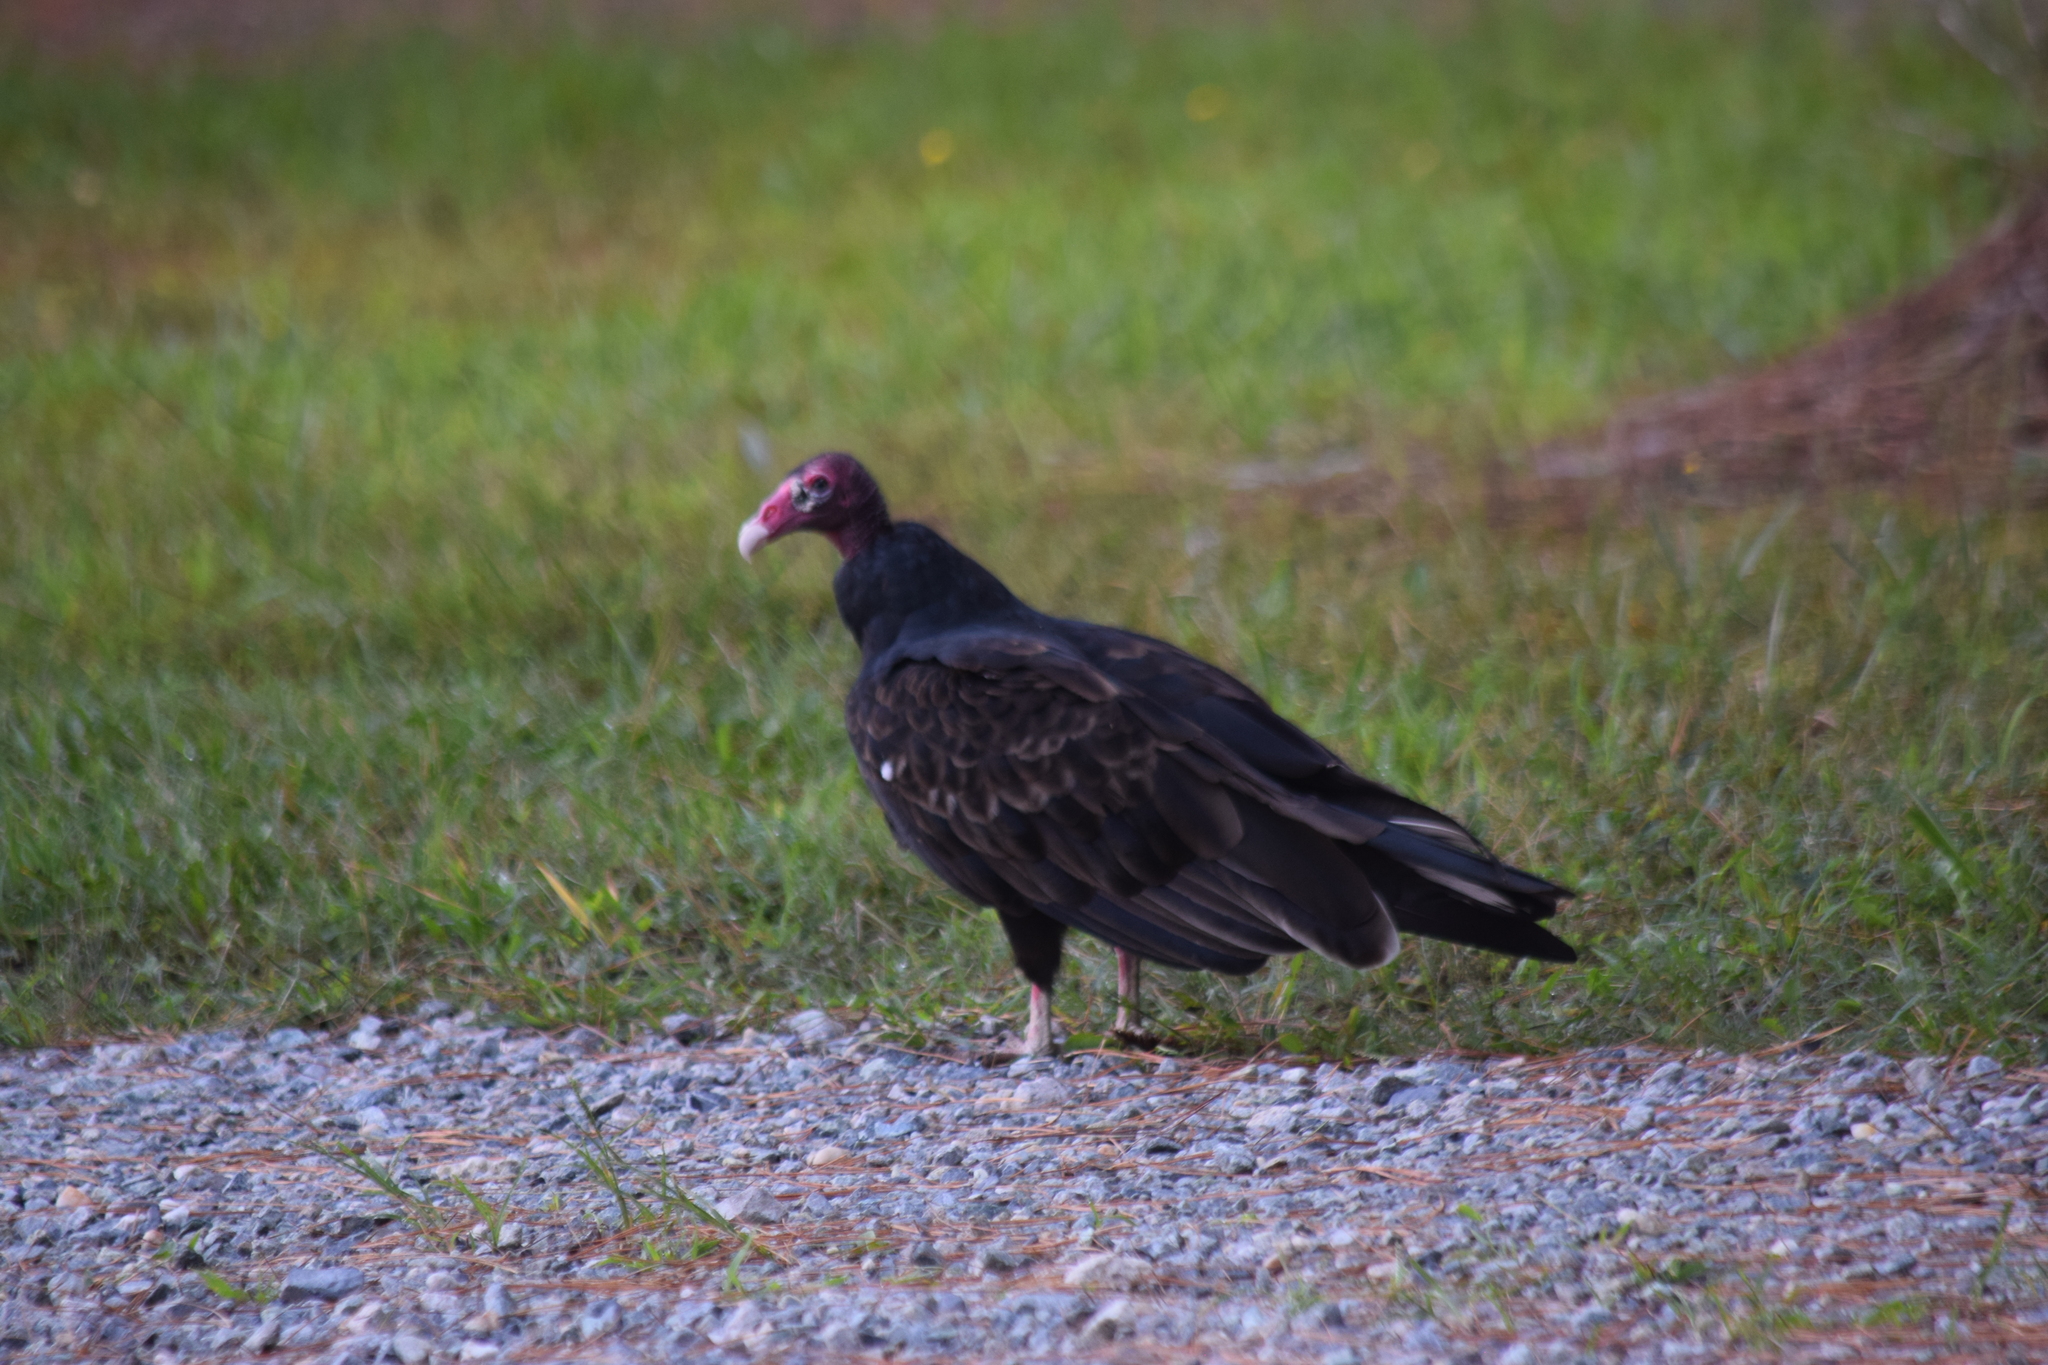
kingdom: Animalia
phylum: Chordata
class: Aves
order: Accipitriformes
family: Cathartidae
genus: Cathartes
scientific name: Cathartes aura
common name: Turkey vulture
